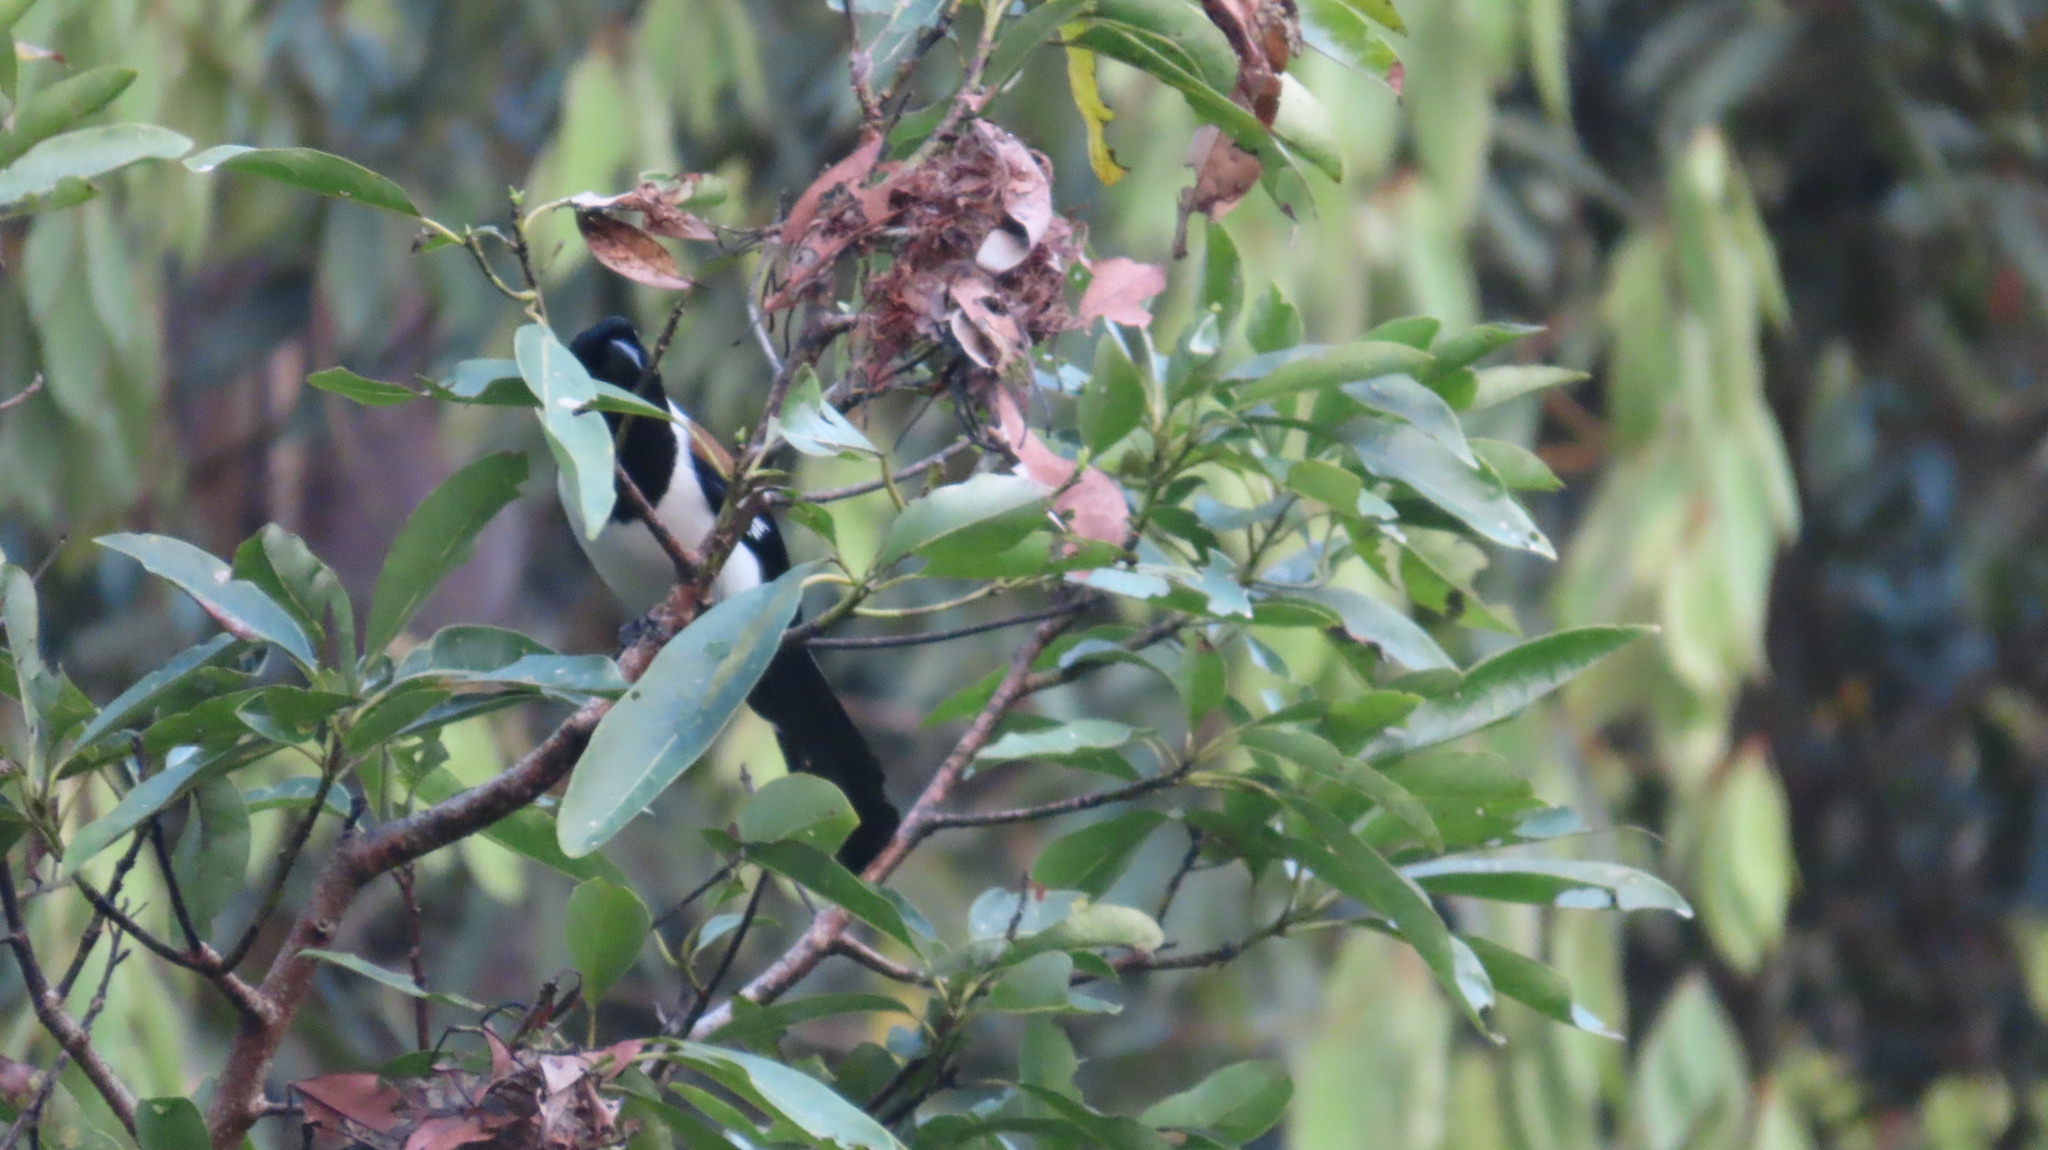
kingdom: Animalia
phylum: Chordata
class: Aves
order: Passeriformes
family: Corvidae
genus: Dendrocitta
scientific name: Dendrocitta leucogastra
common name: White-bellied treepie
